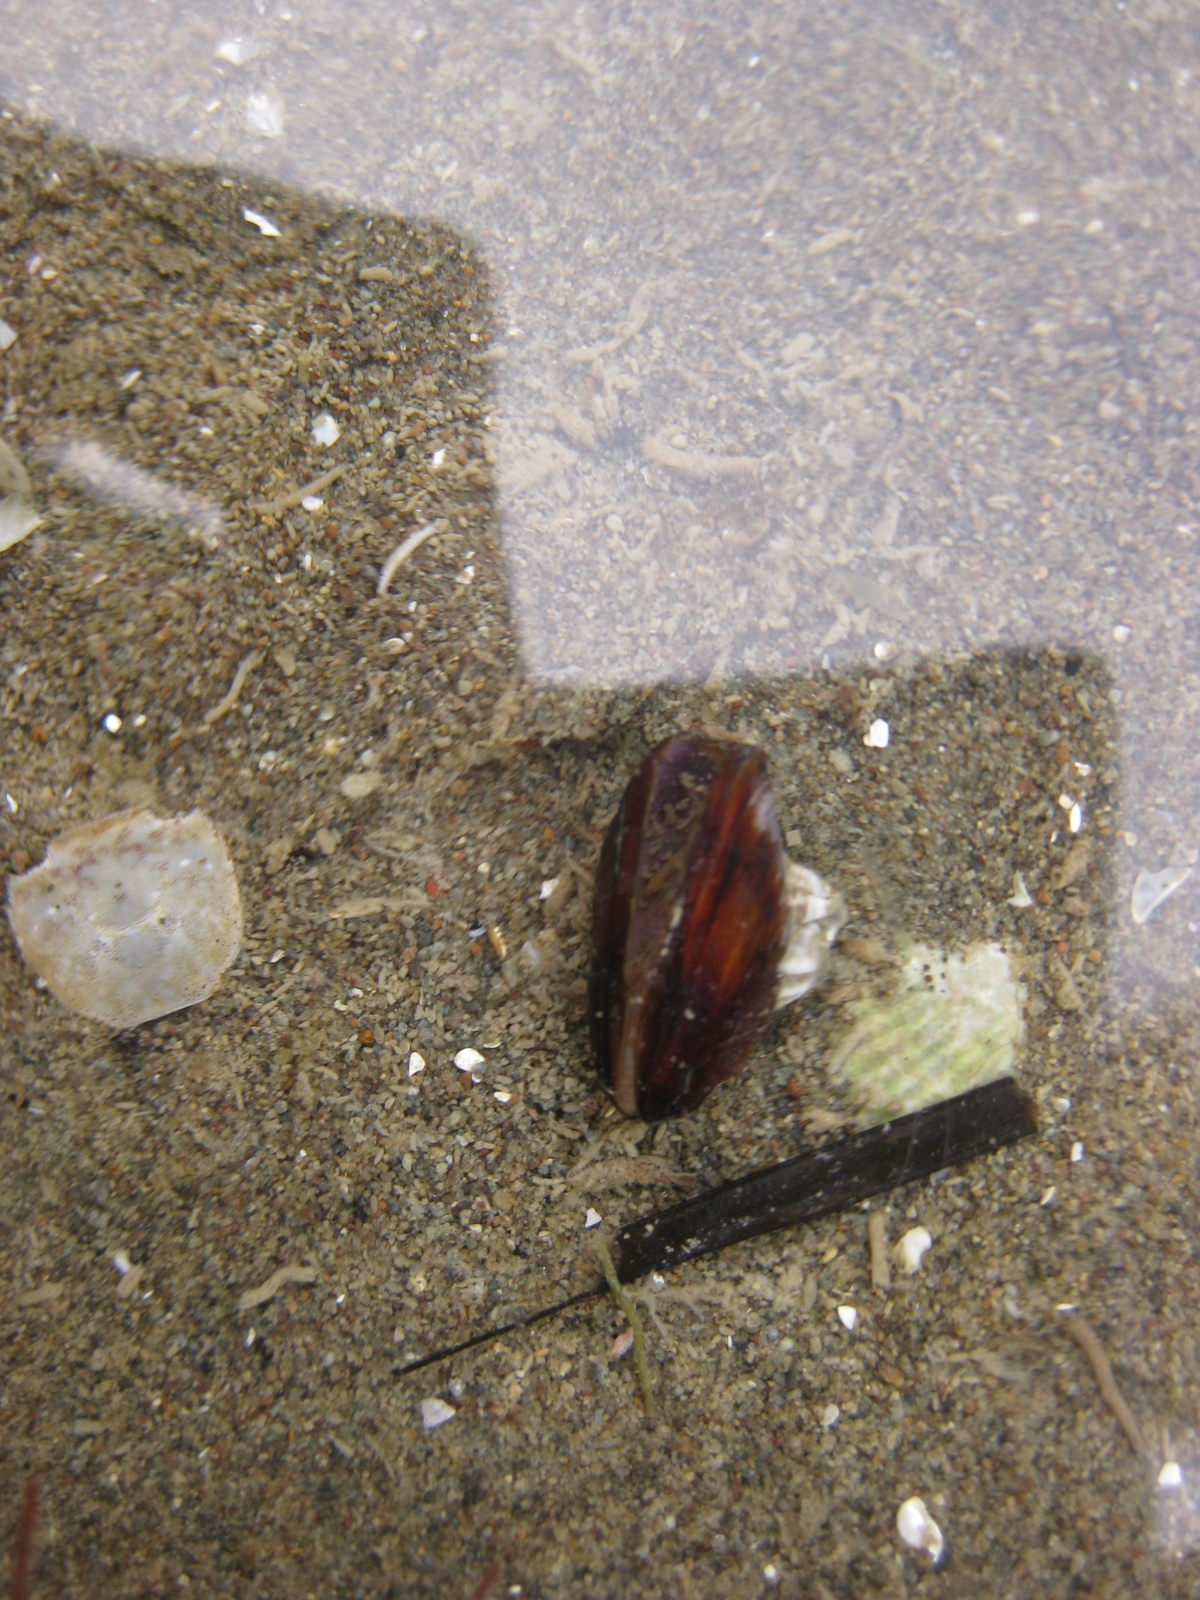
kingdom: Animalia
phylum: Mollusca
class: Bivalvia
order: Mytilida
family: Mytilidae
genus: Xenostrobus
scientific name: Xenostrobus securis
